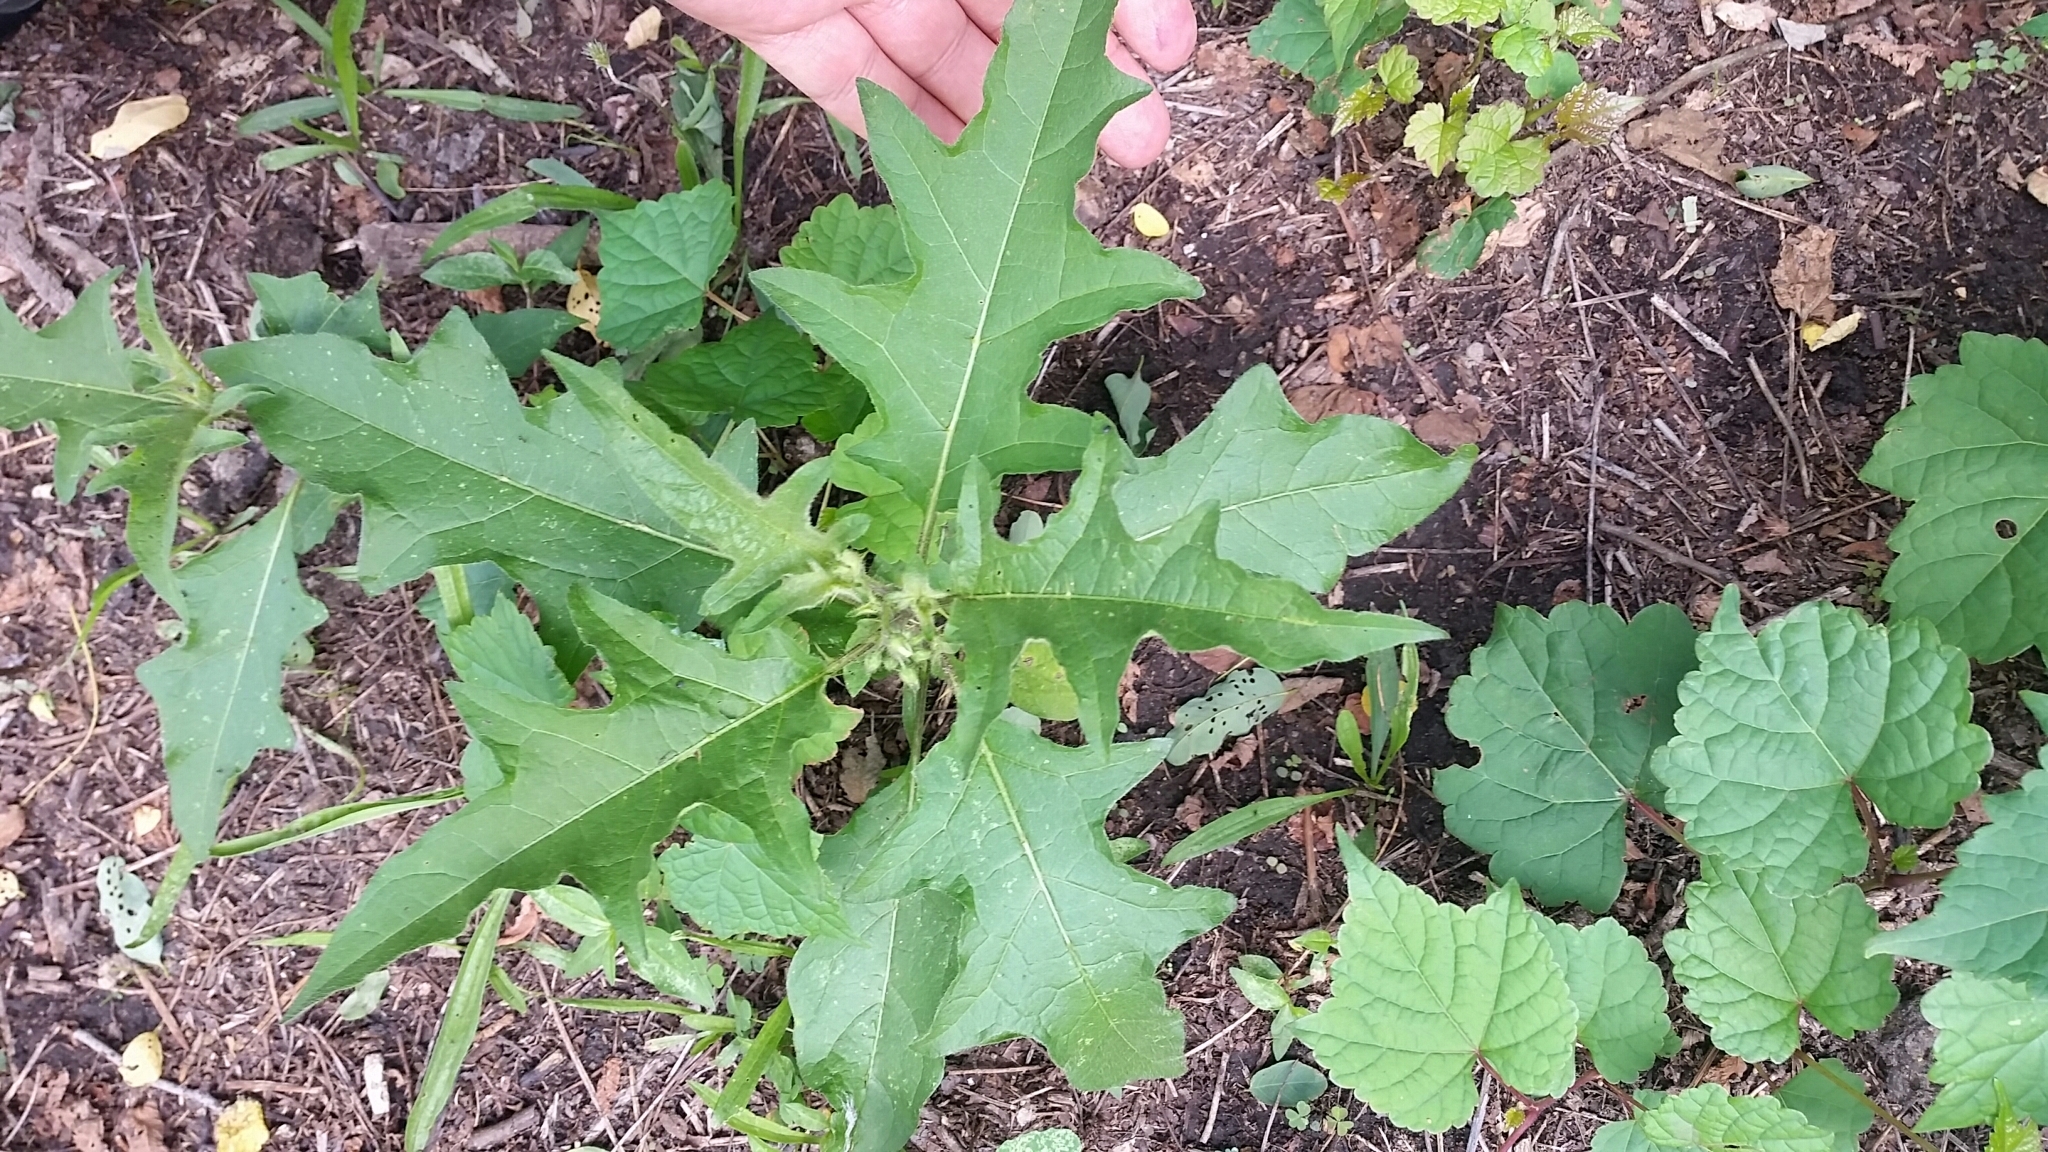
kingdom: Plantae
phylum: Tracheophyta
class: Magnoliopsida
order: Solanales
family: Solanaceae
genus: Solanum
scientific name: Solanum carolinense
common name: Horse-nettle
